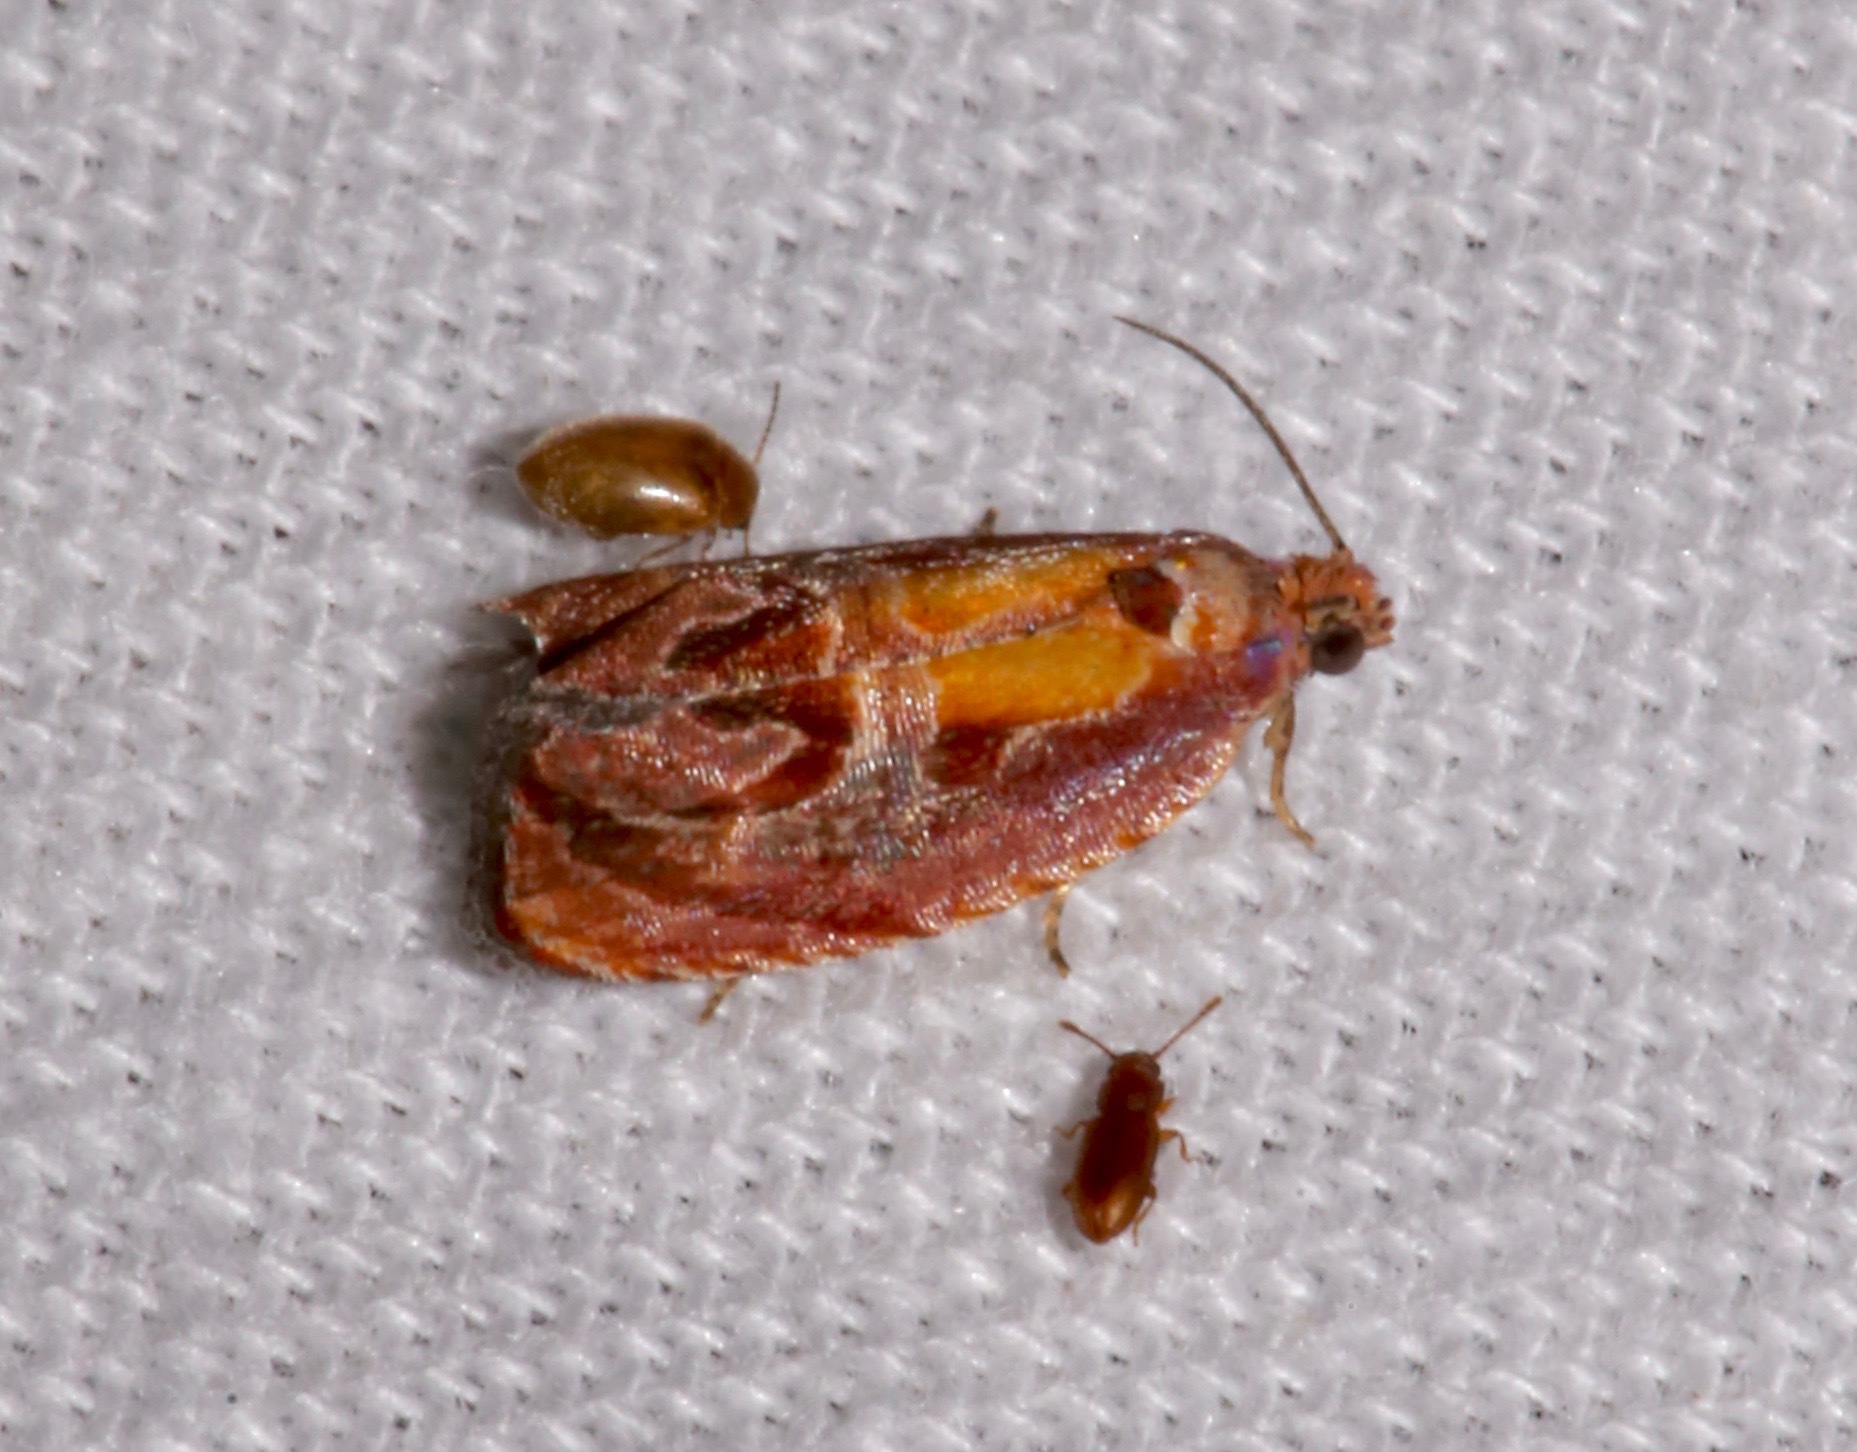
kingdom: Animalia
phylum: Arthropoda
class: Insecta
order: Lepidoptera
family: Tortricidae
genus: Zomaria
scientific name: Zomaria rosaochreana
